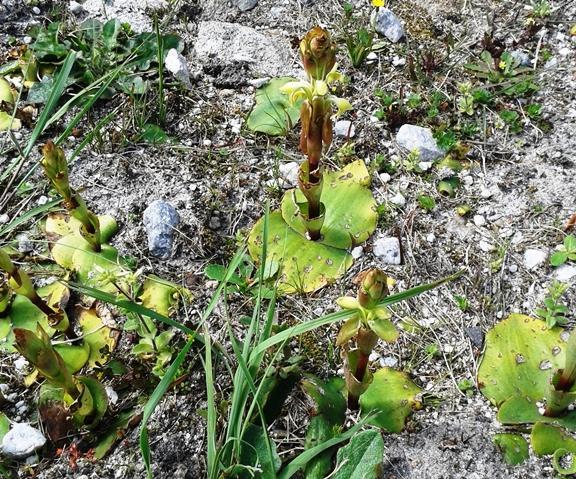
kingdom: Plantae
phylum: Tracheophyta
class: Liliopsida
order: Asparagales
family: Orchidaceae
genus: Satyrium
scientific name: Satyrium bicorne
